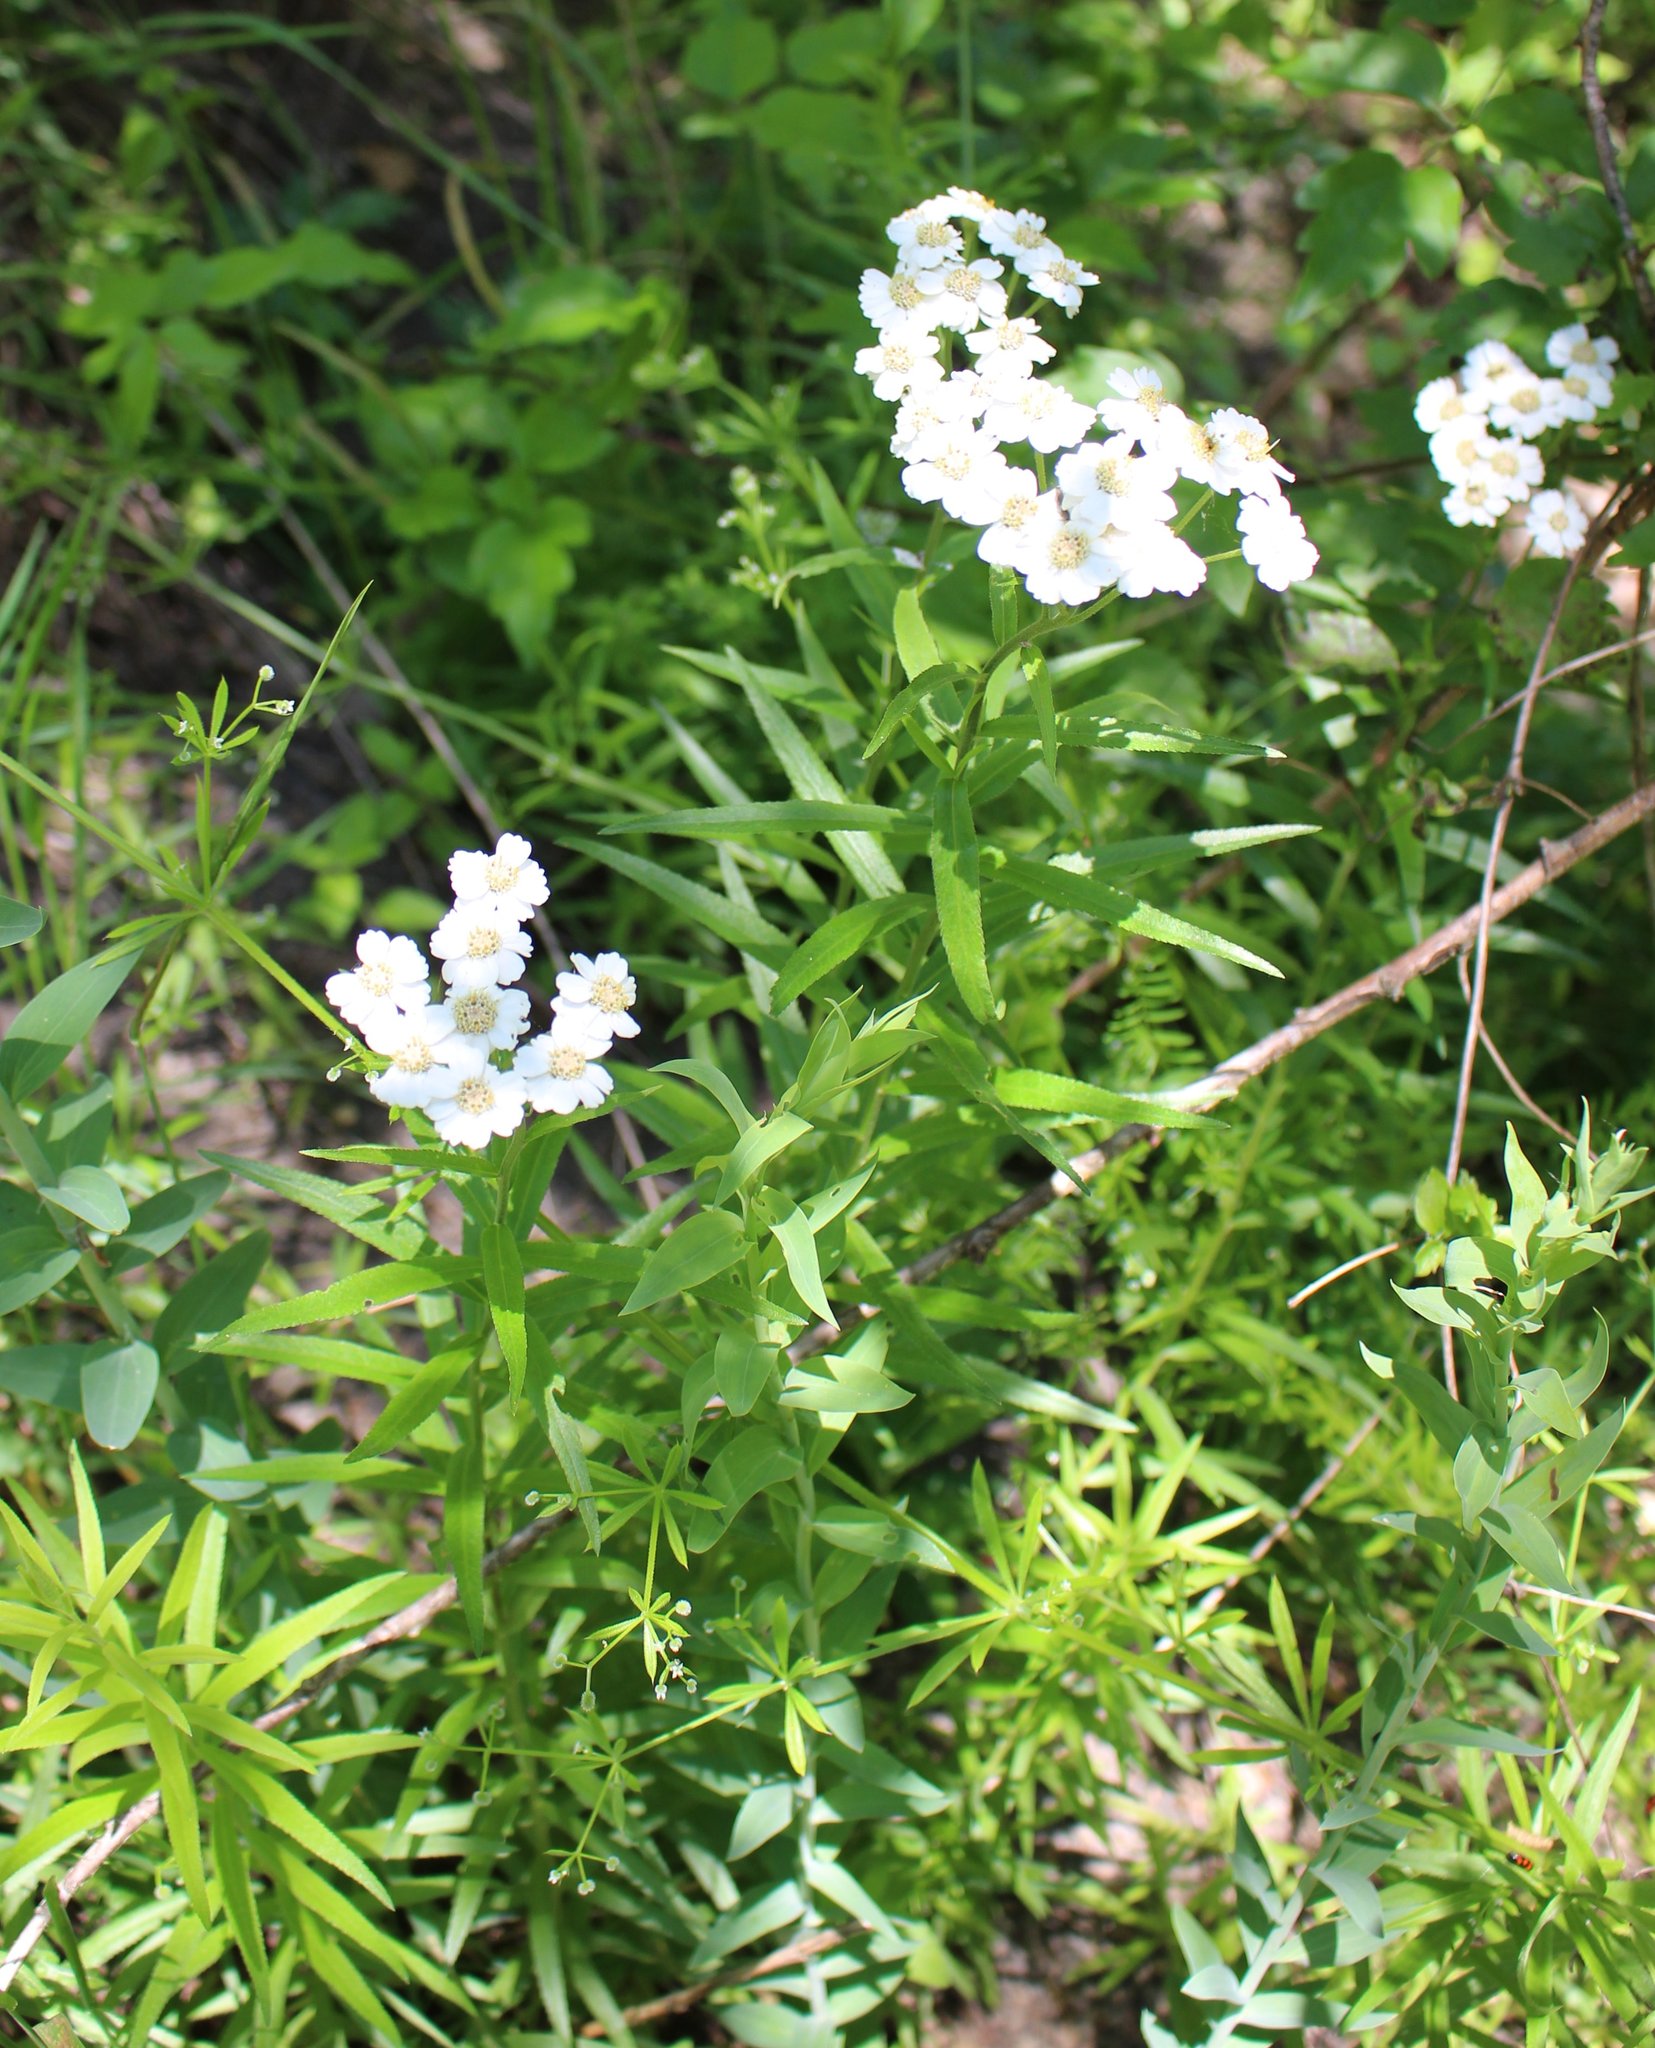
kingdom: Plantae
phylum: Tracheophyta
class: Magnoliopsida
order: Asterales
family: Asteraceae
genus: Achillea
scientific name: Achillea biserrata
